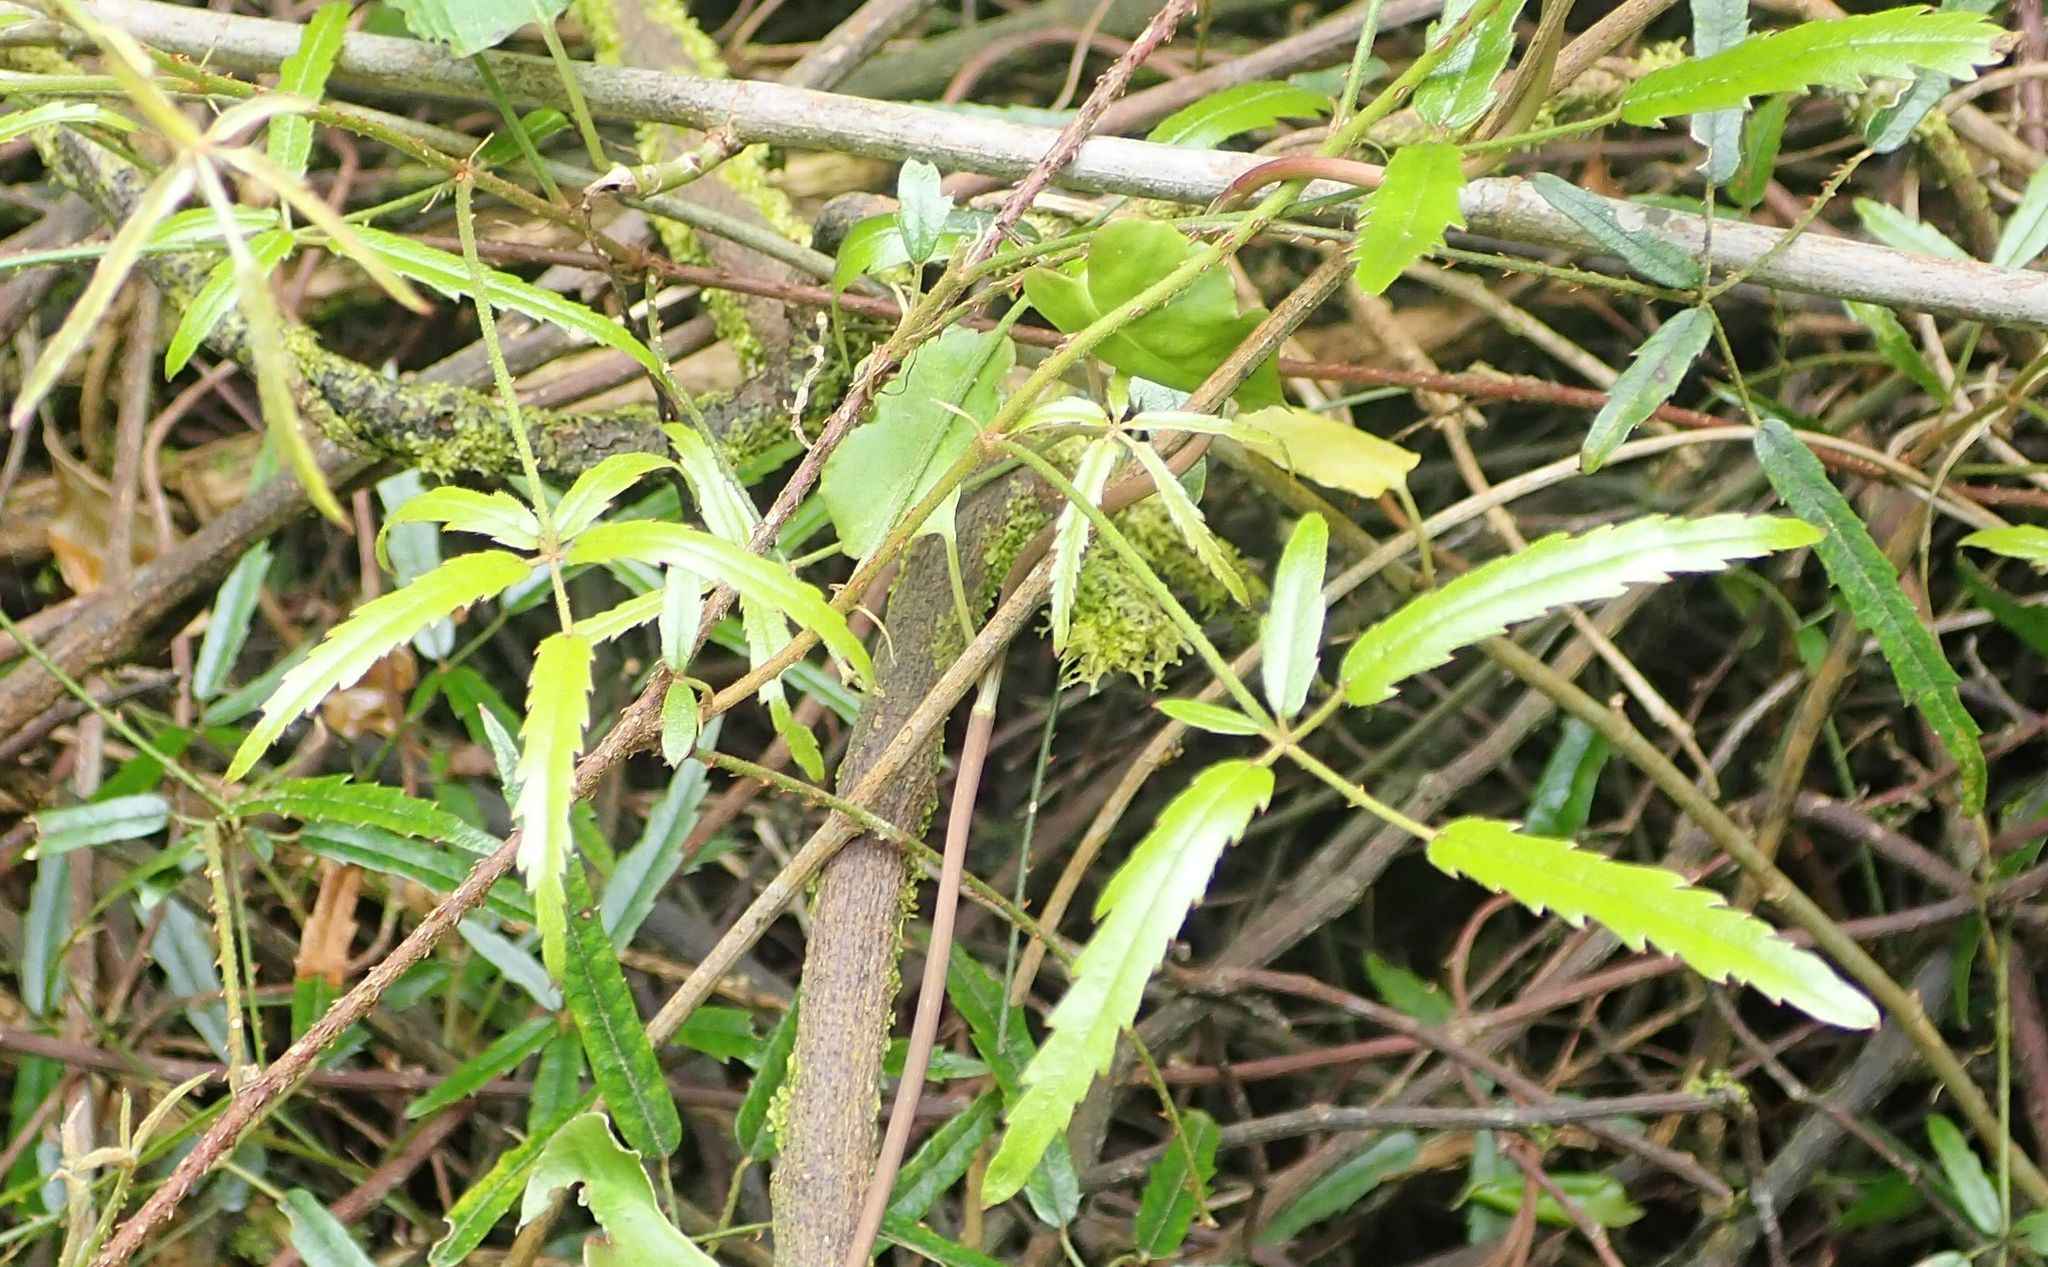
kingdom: Plantae
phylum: Tracheophyta
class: Magnoliopsida
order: Rosales
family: Rosaceae
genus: Rubus
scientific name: Rubus schmidelioides
